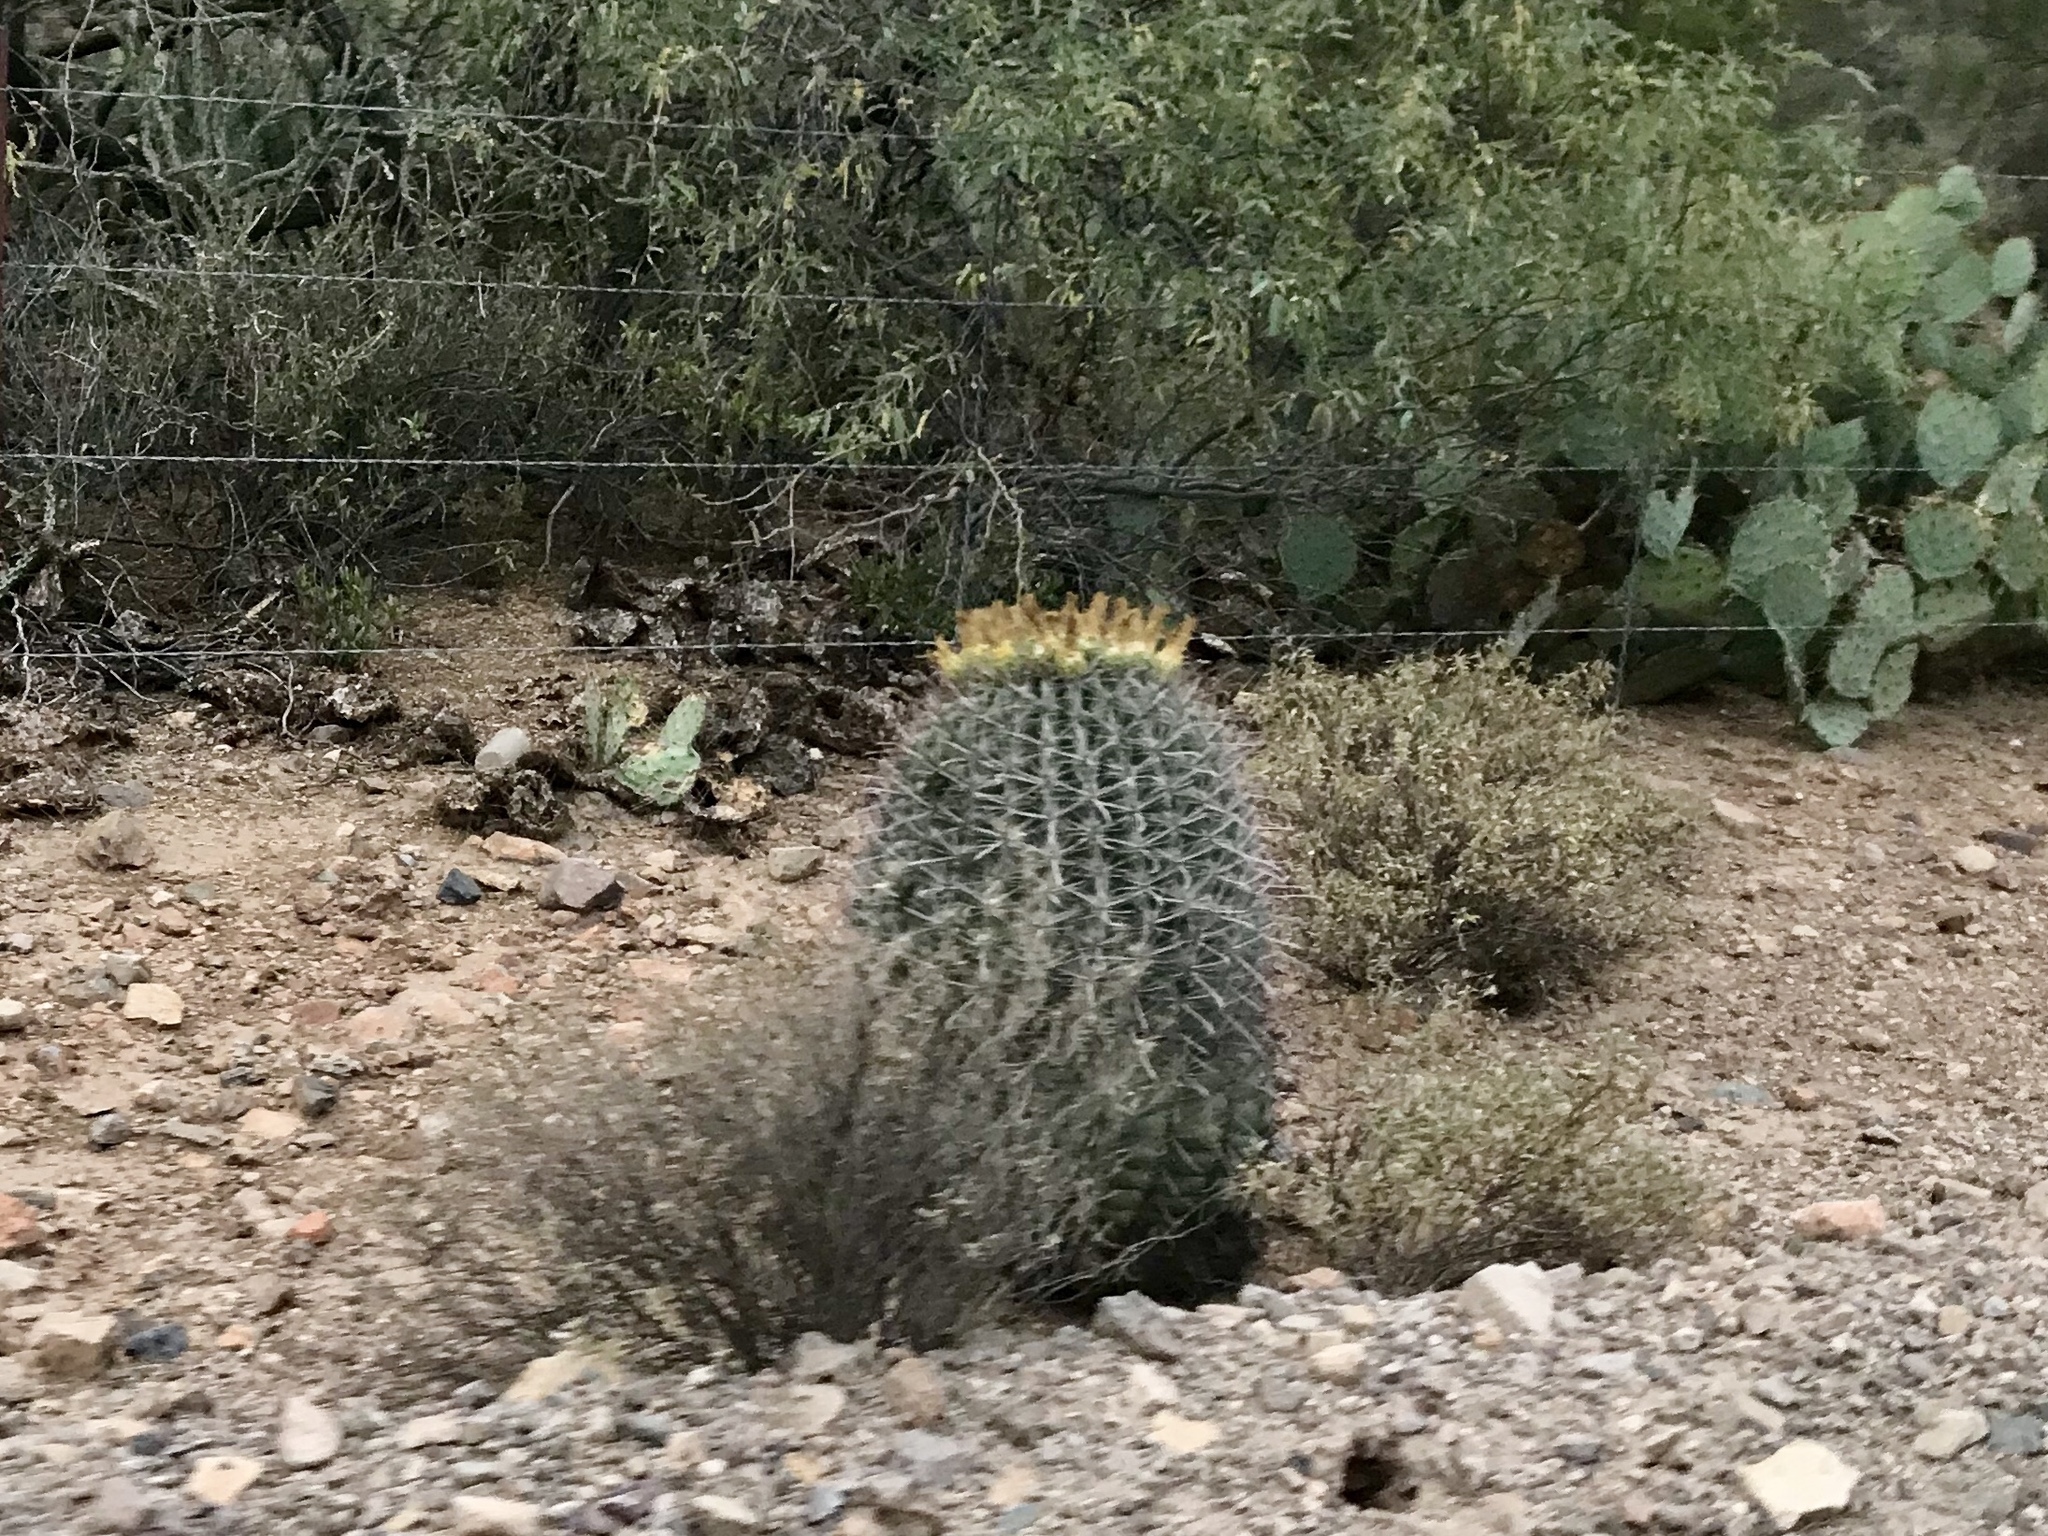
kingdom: Plantae
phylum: Tracheophyta
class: Magnoliopsida
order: Caryophyllales
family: Cactaceae
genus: Ferocactus
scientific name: Ferocactus wislizeni
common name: Candy barrel cactus
